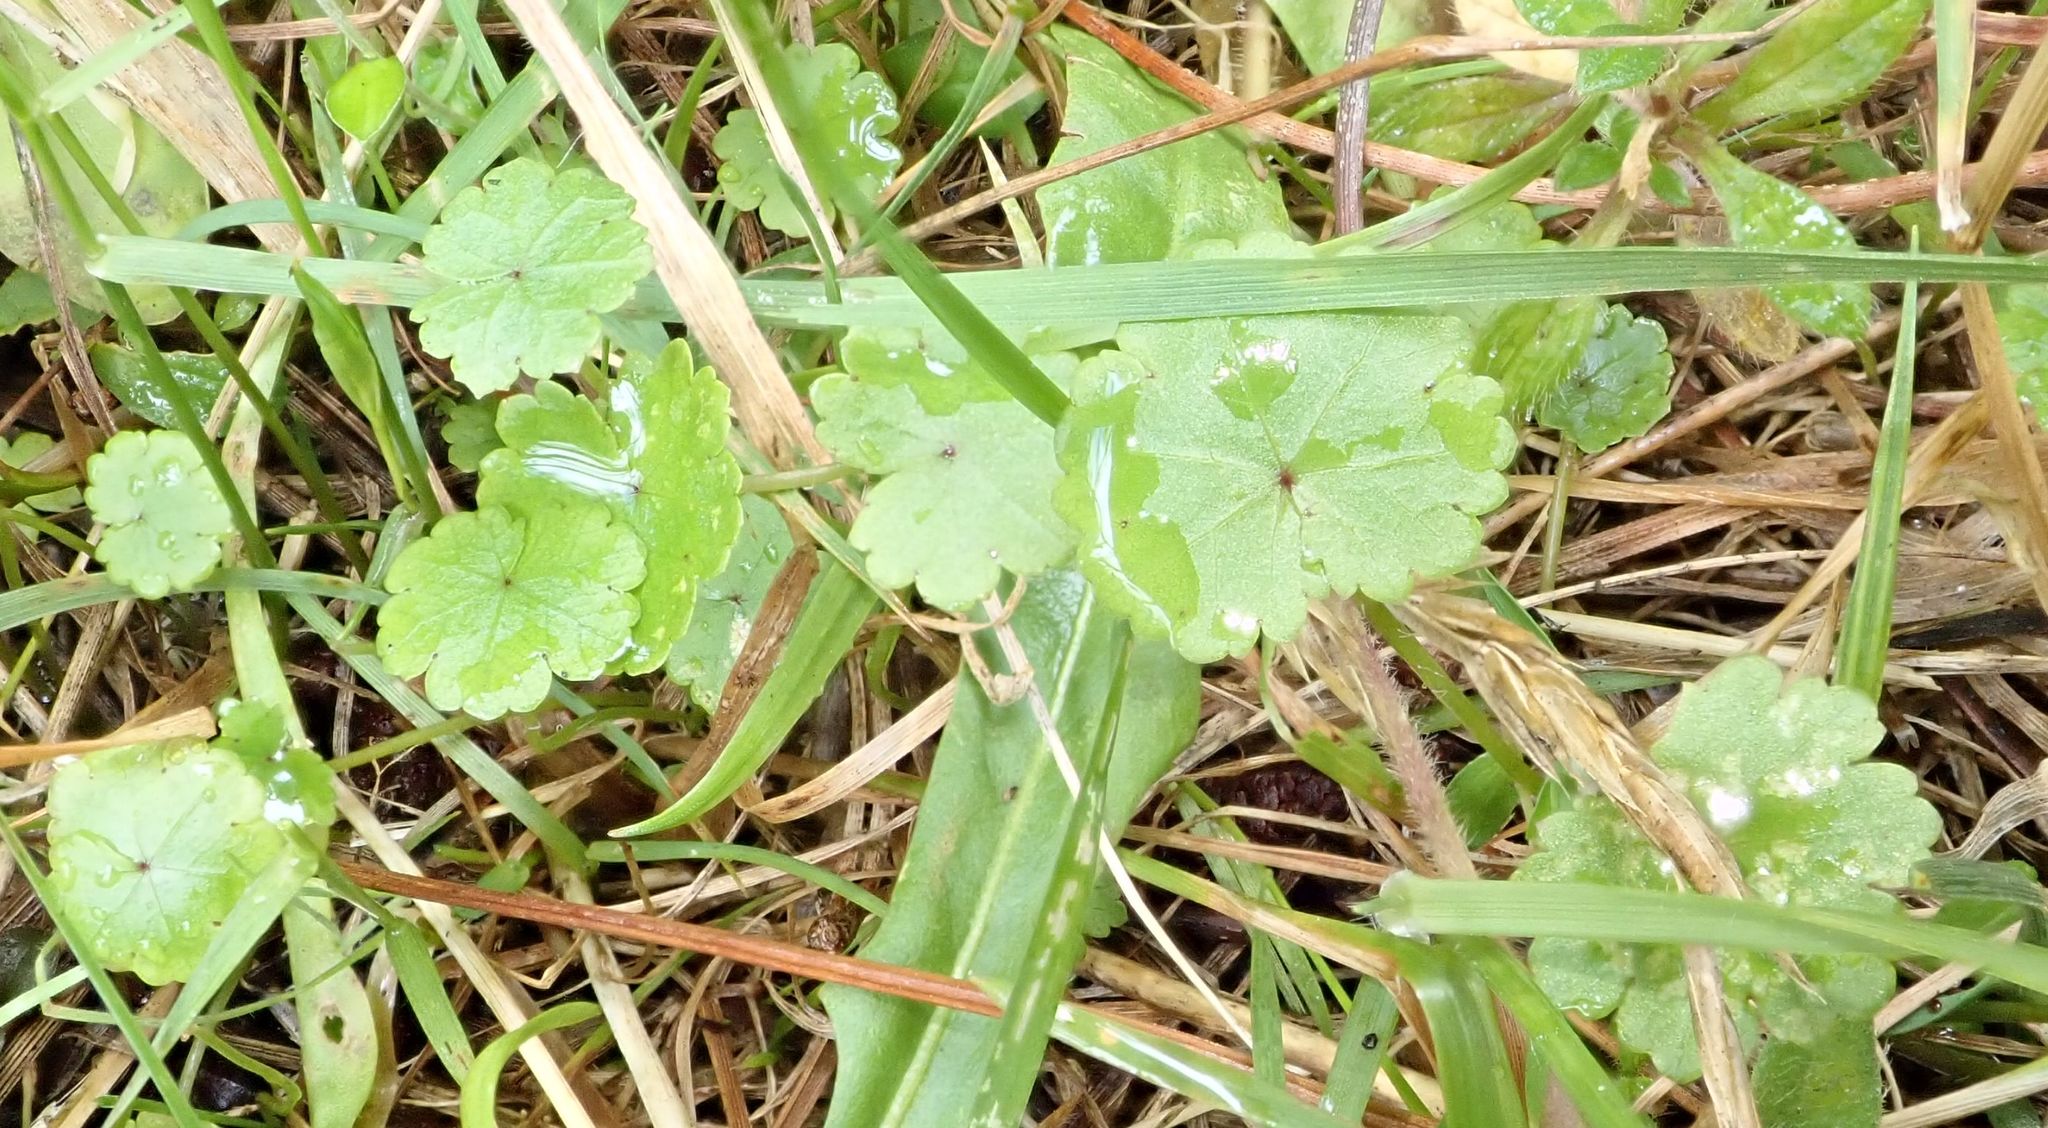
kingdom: Plantae
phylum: Tracheophyta
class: Magnoliopsida
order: Apiales
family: Araliaceae
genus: Hydrocotyle
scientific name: Hydrocotyle microphylla
